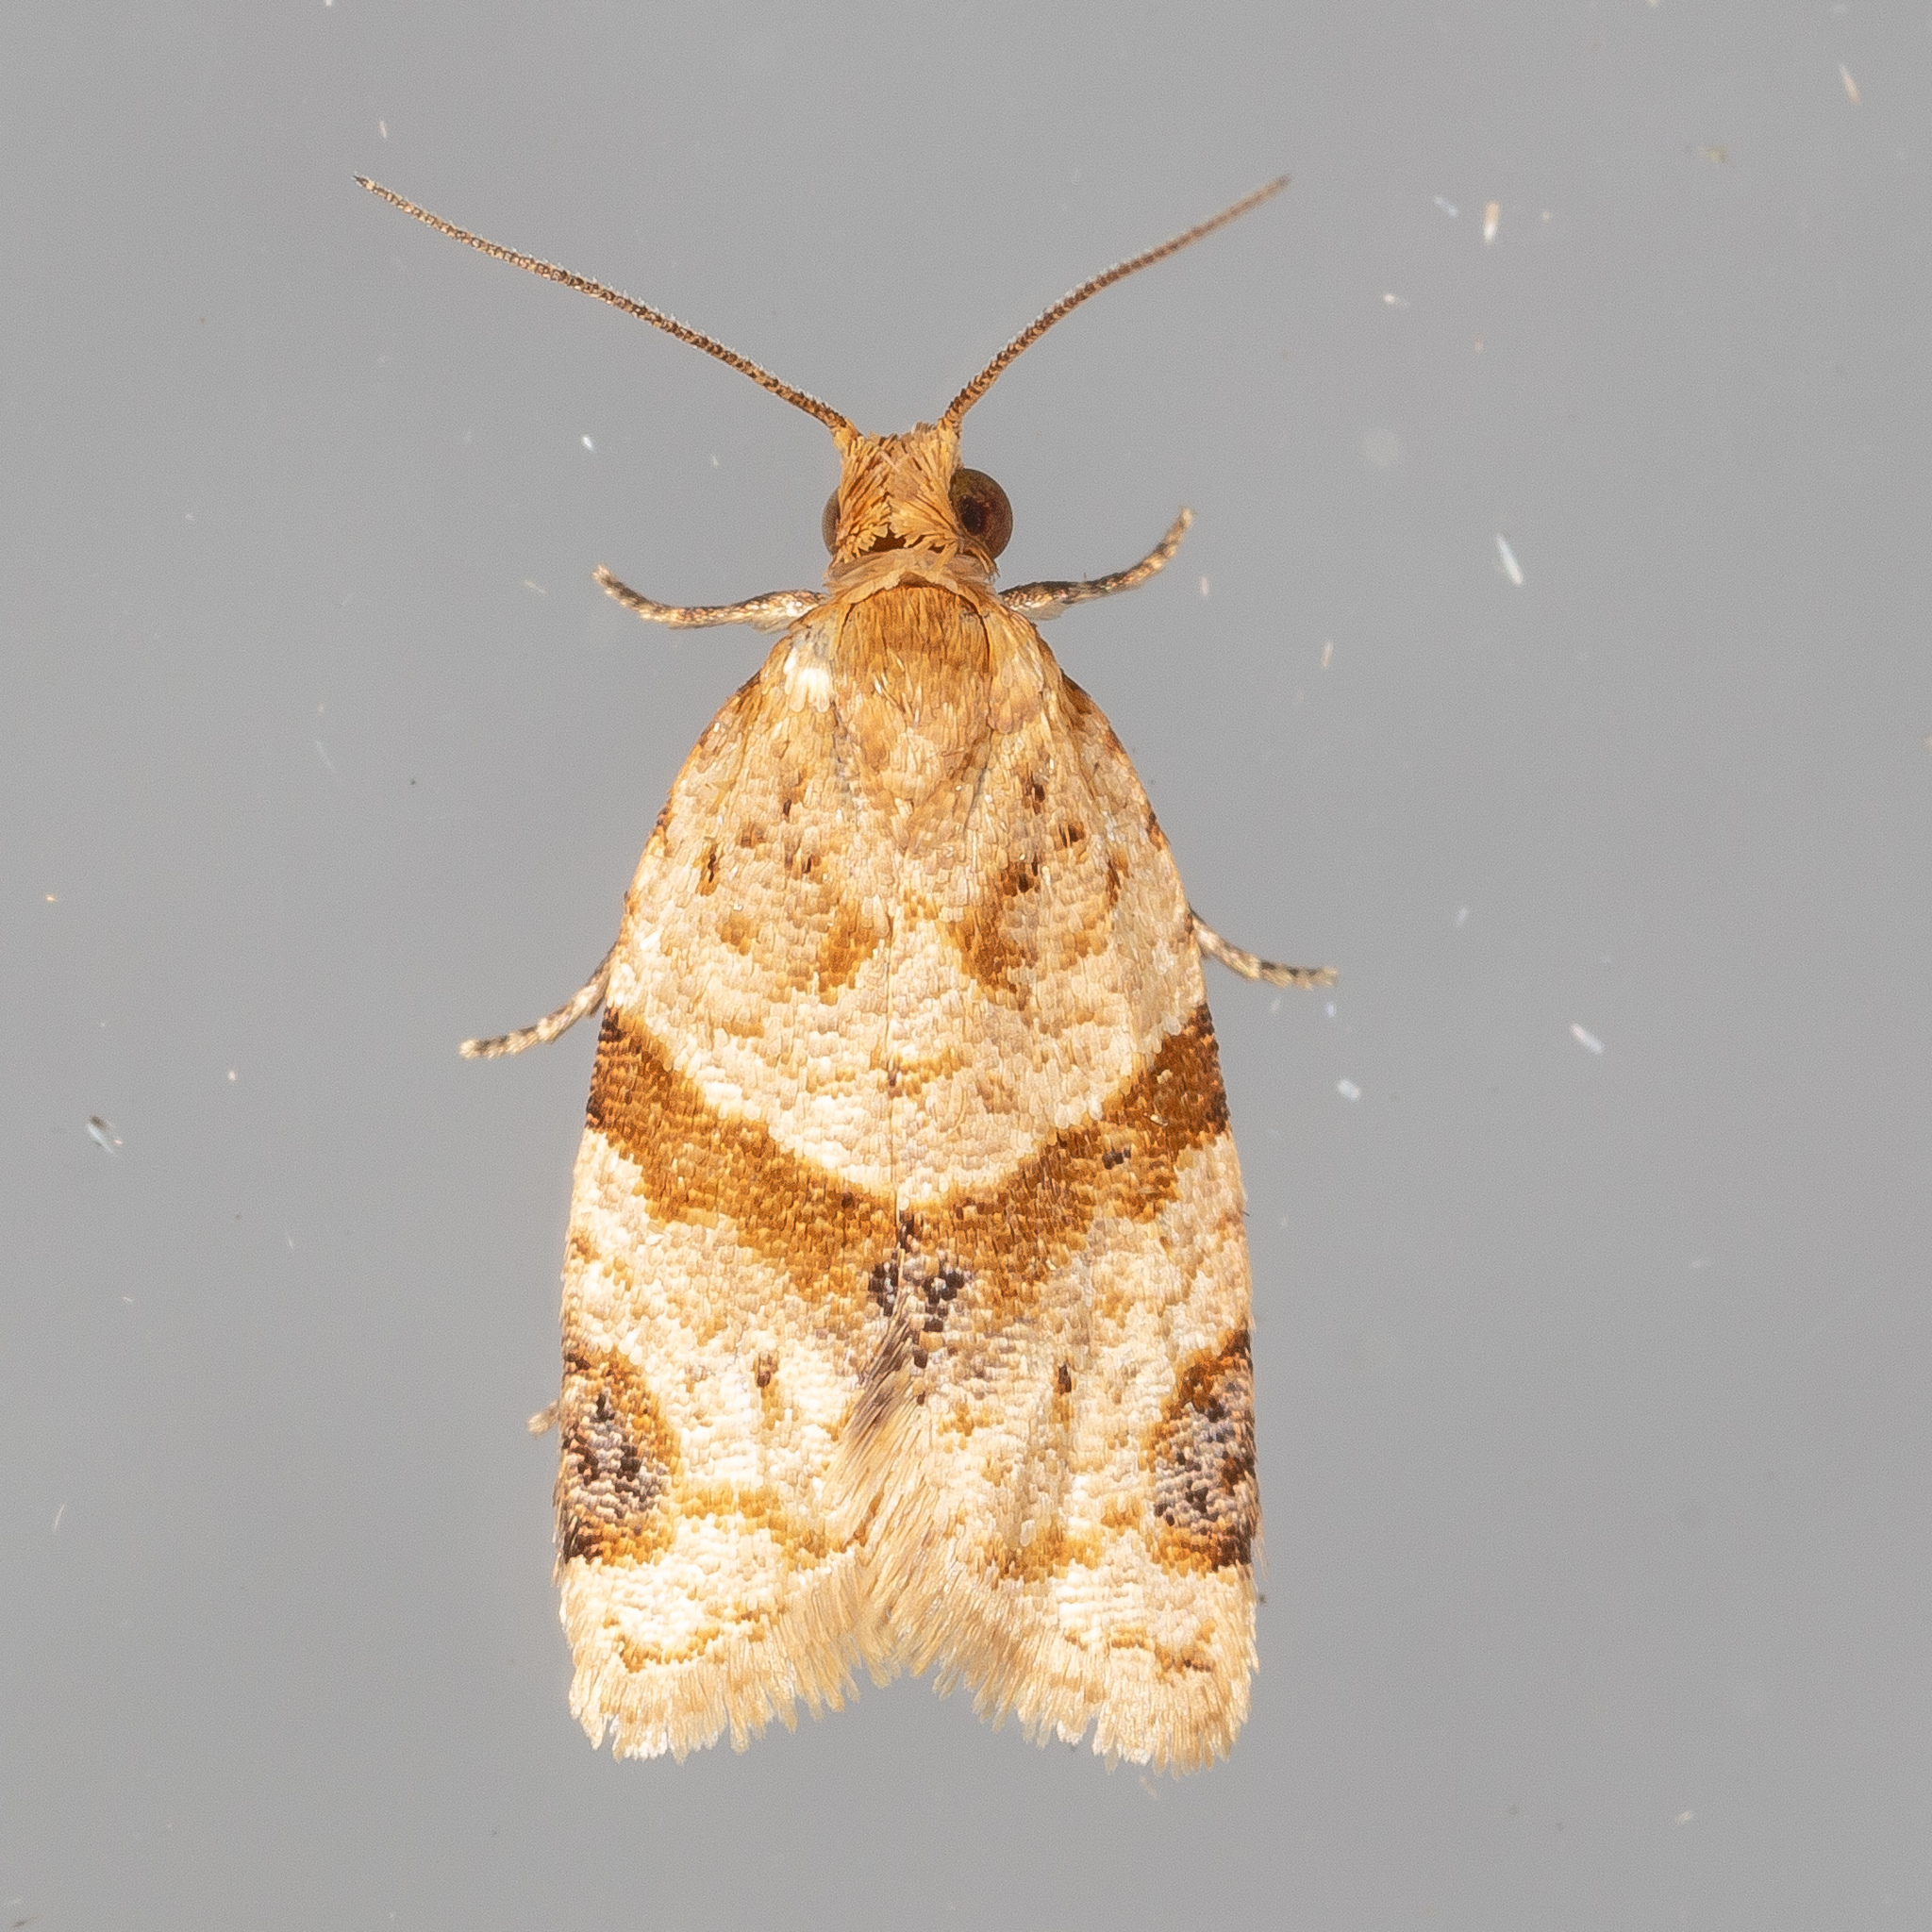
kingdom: Animalia
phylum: Arthropoda
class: Insecta
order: Lepidoptera
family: Tortricidae
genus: Clepsis
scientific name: Clepsis peritana
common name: Garden tortrix
